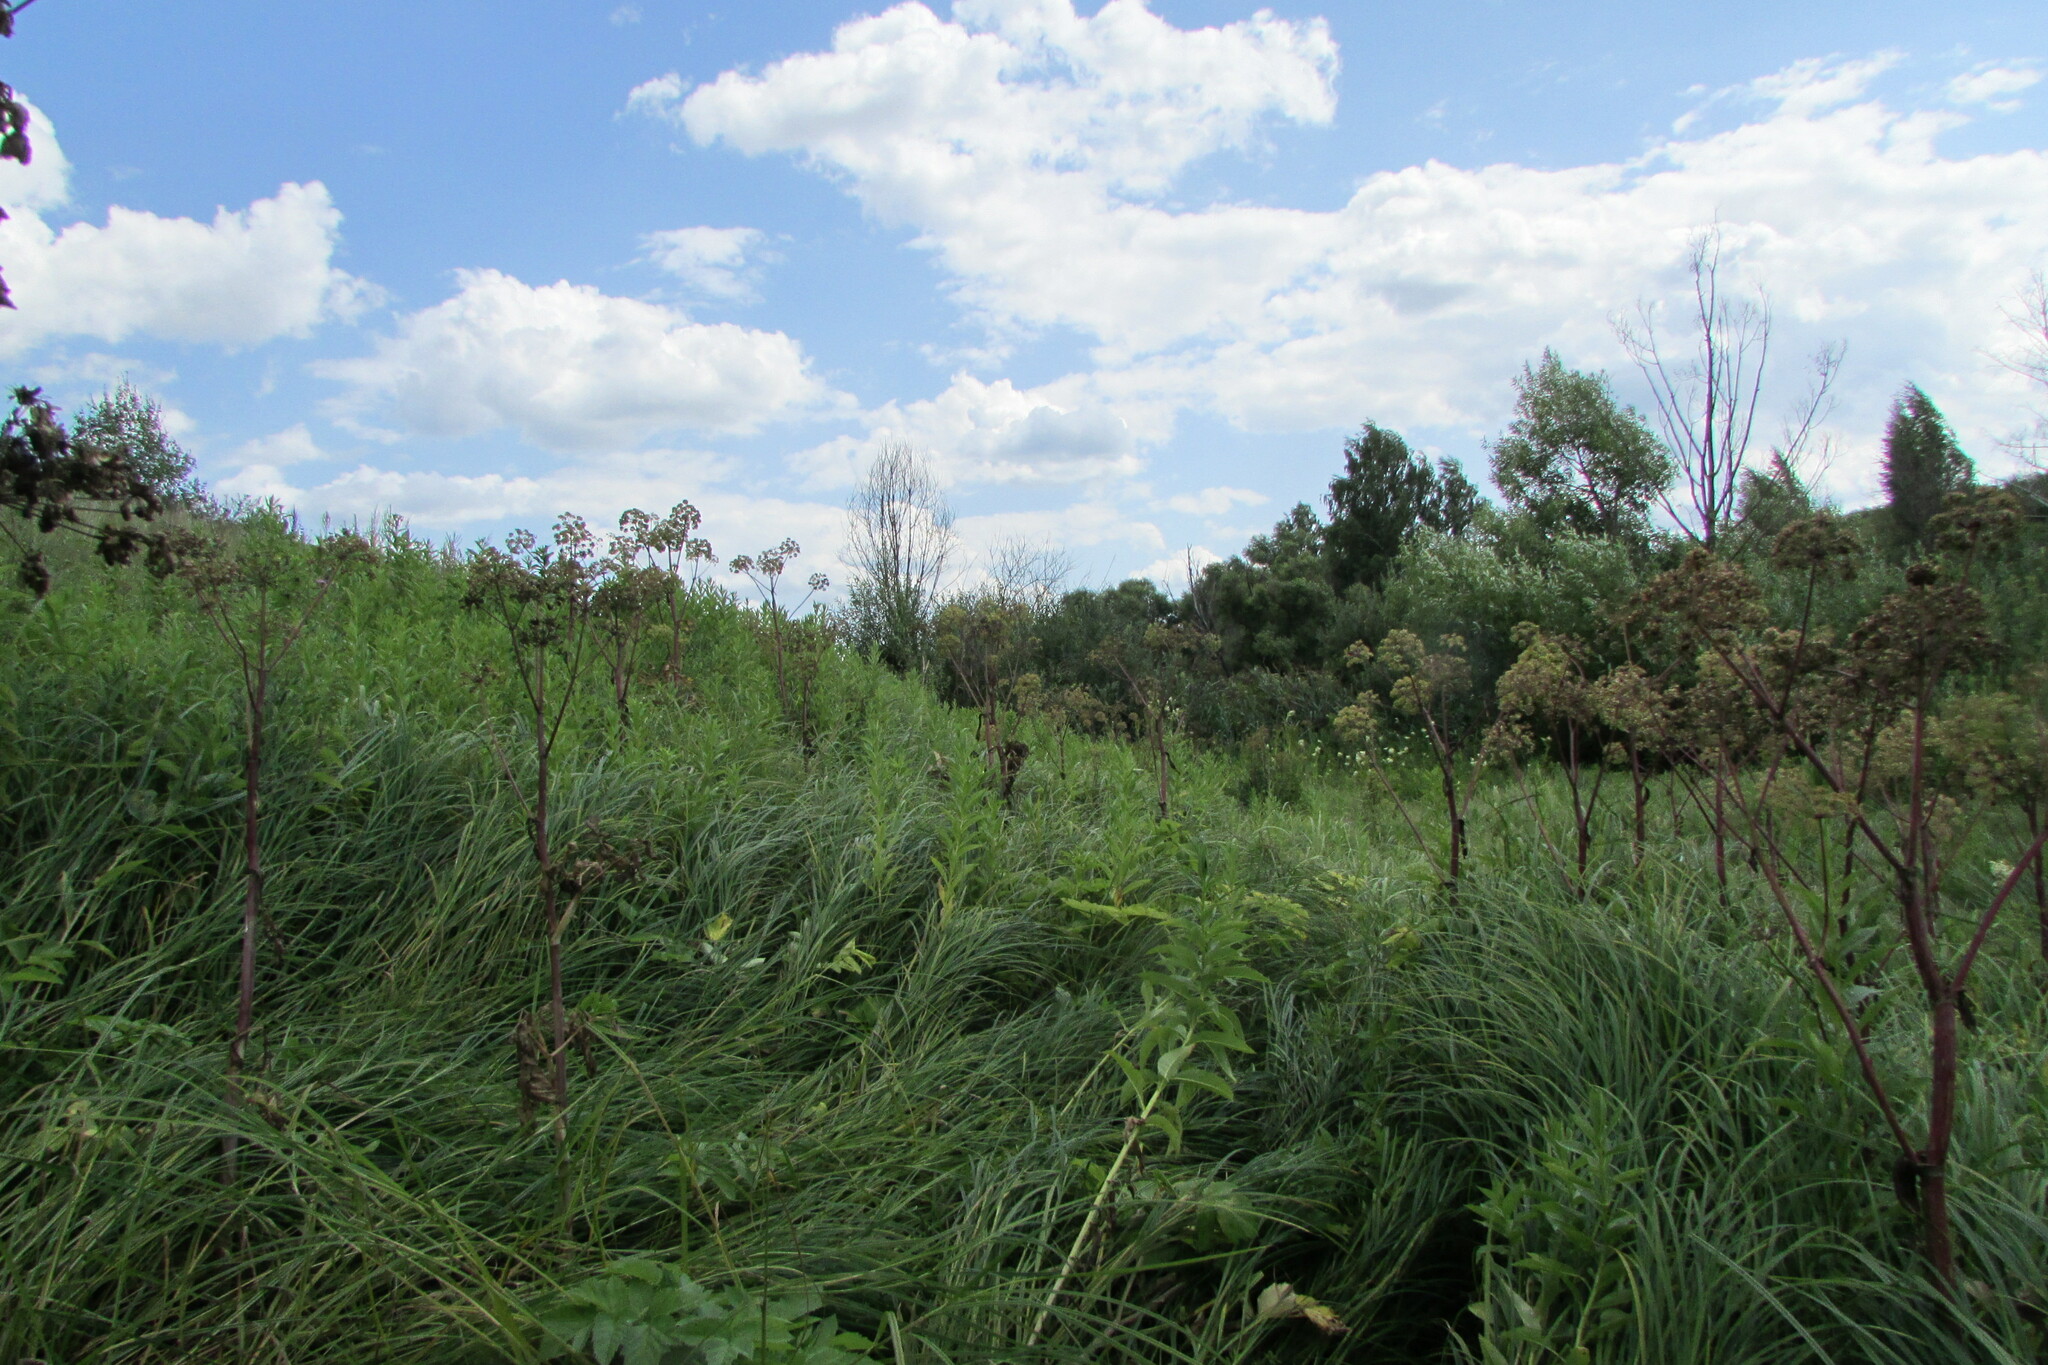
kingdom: Plantae
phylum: Tracheophyta
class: Magnoliopsida
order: Apiales
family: Apiaceae
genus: Angelica
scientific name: Angelica archangelica
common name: Garden angelica
